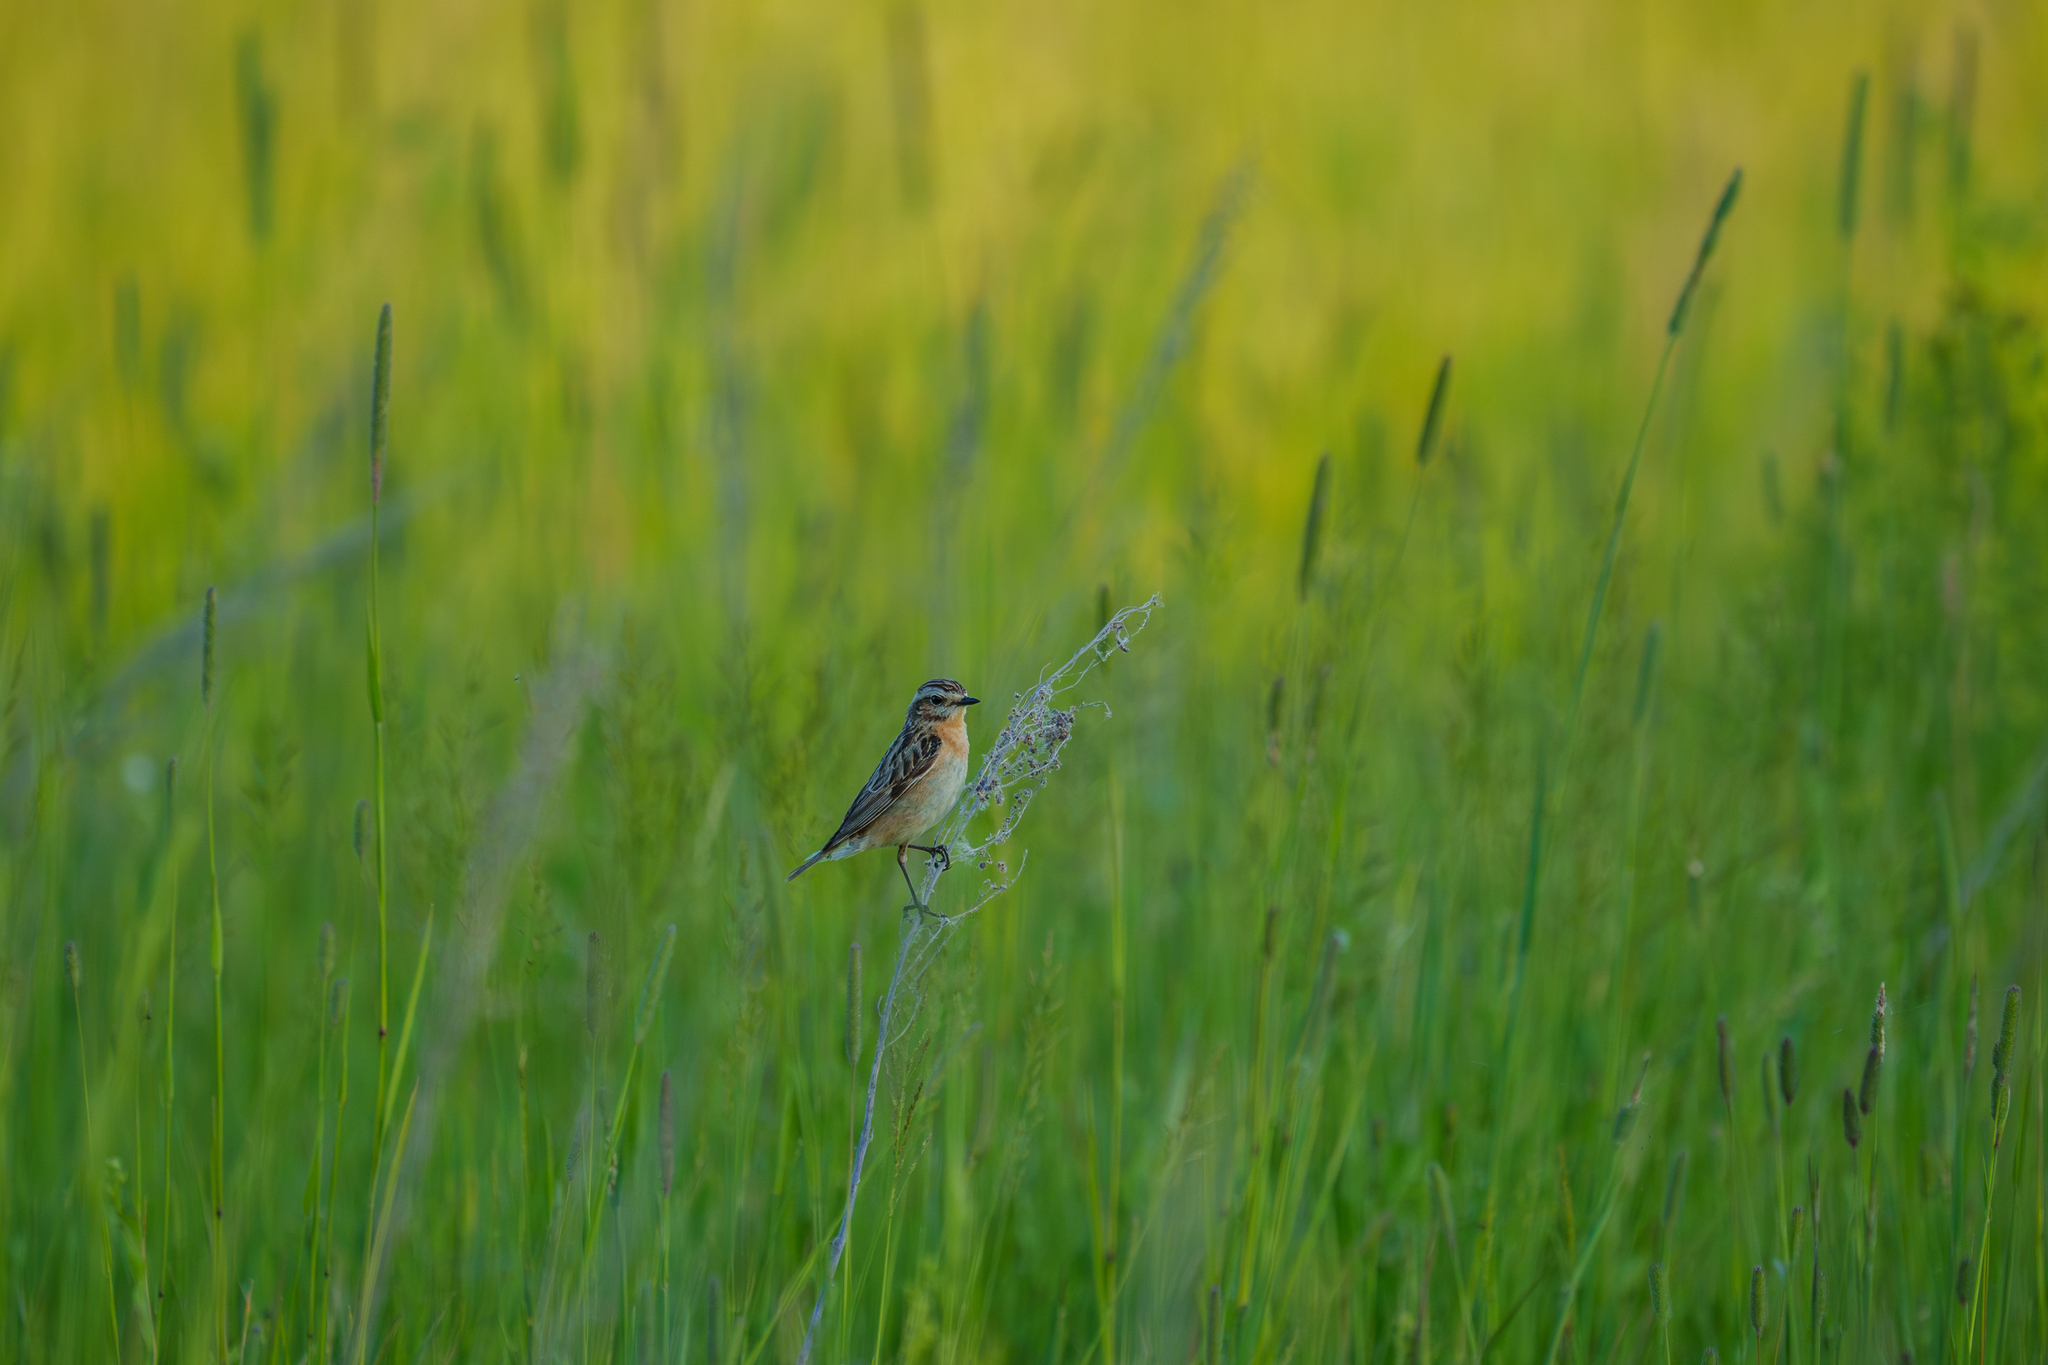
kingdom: Animalia
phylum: Chordata
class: Aves
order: Passeriformes
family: Muscicapidae
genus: Saxicola
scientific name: Saxicola rubetra
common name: Whinchat
